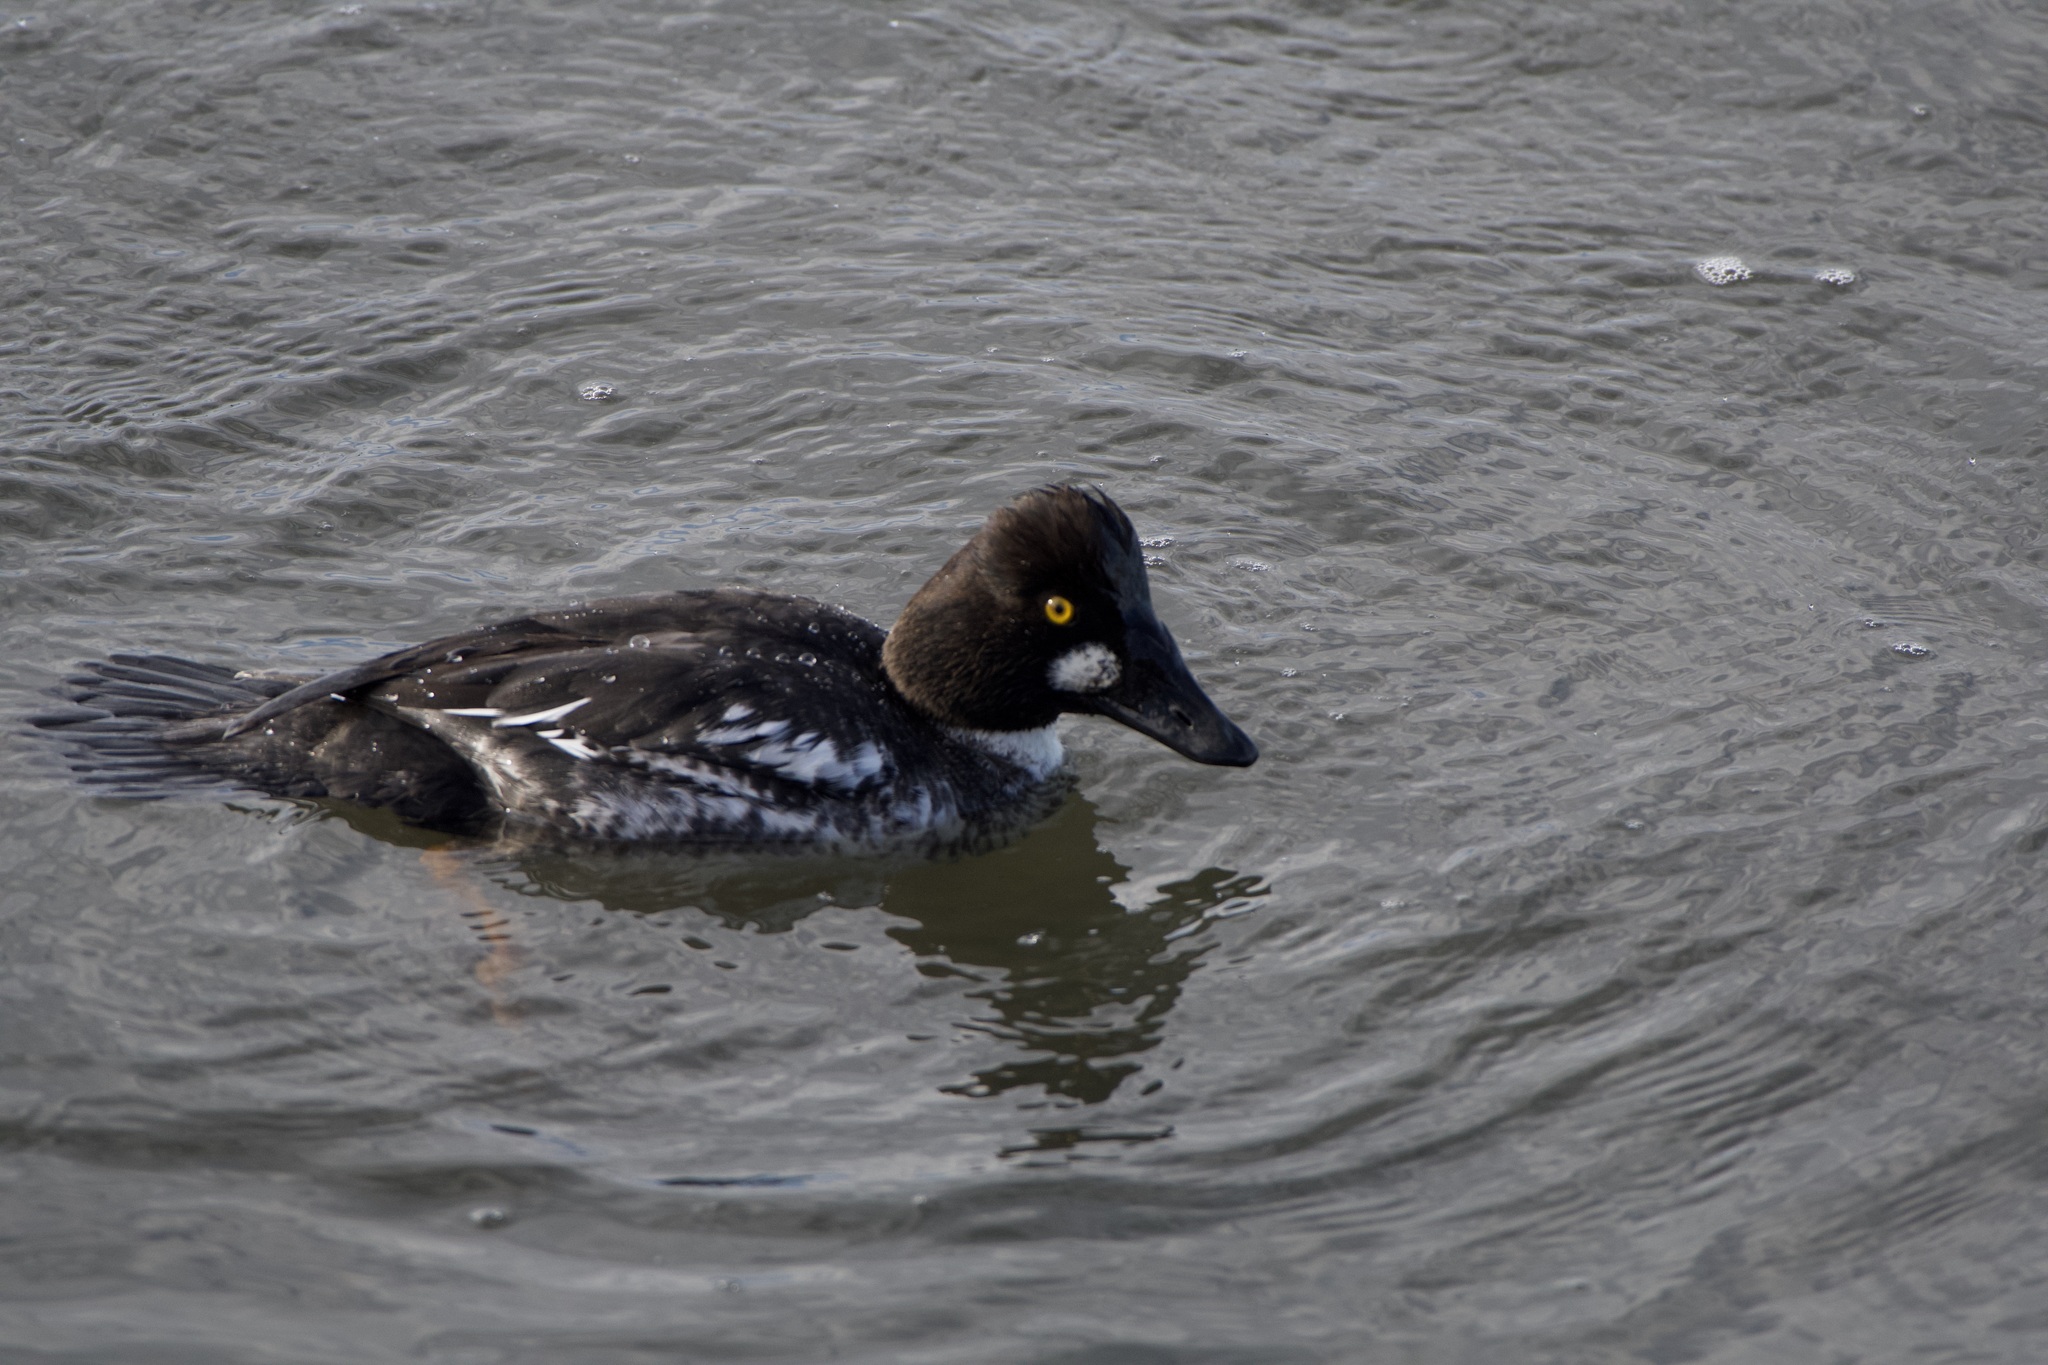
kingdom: Animalia
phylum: Chordata
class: Aves
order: Anseriformes
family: Anatidae
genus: Bucephala
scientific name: Bucephala clangula
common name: Common goldeneye
